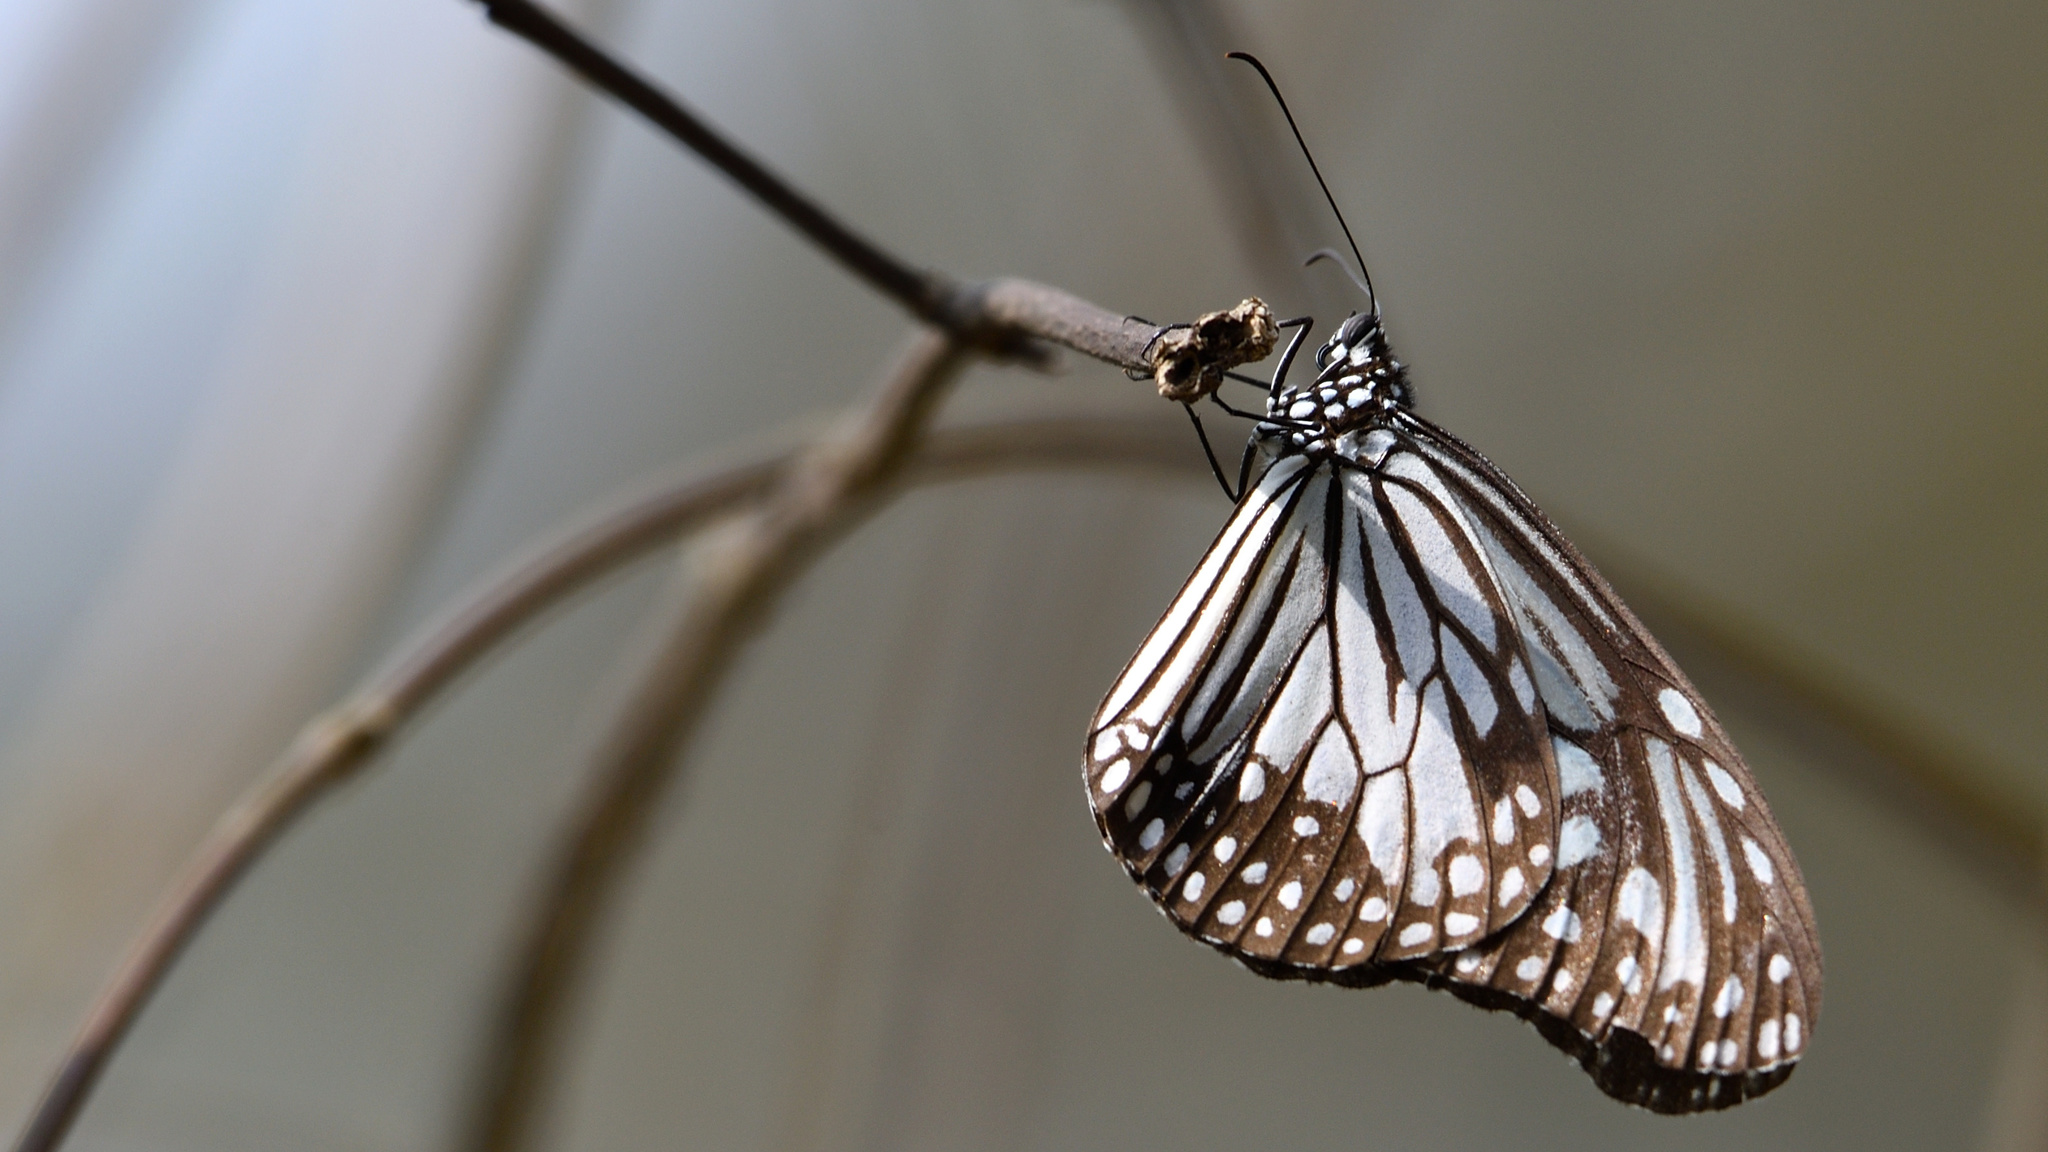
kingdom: Animalia
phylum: Arthropoda
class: Insecta
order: Lepidoptera
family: Nymphalidae
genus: Parantica
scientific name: Parantica aglea
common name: Glassy tiger
